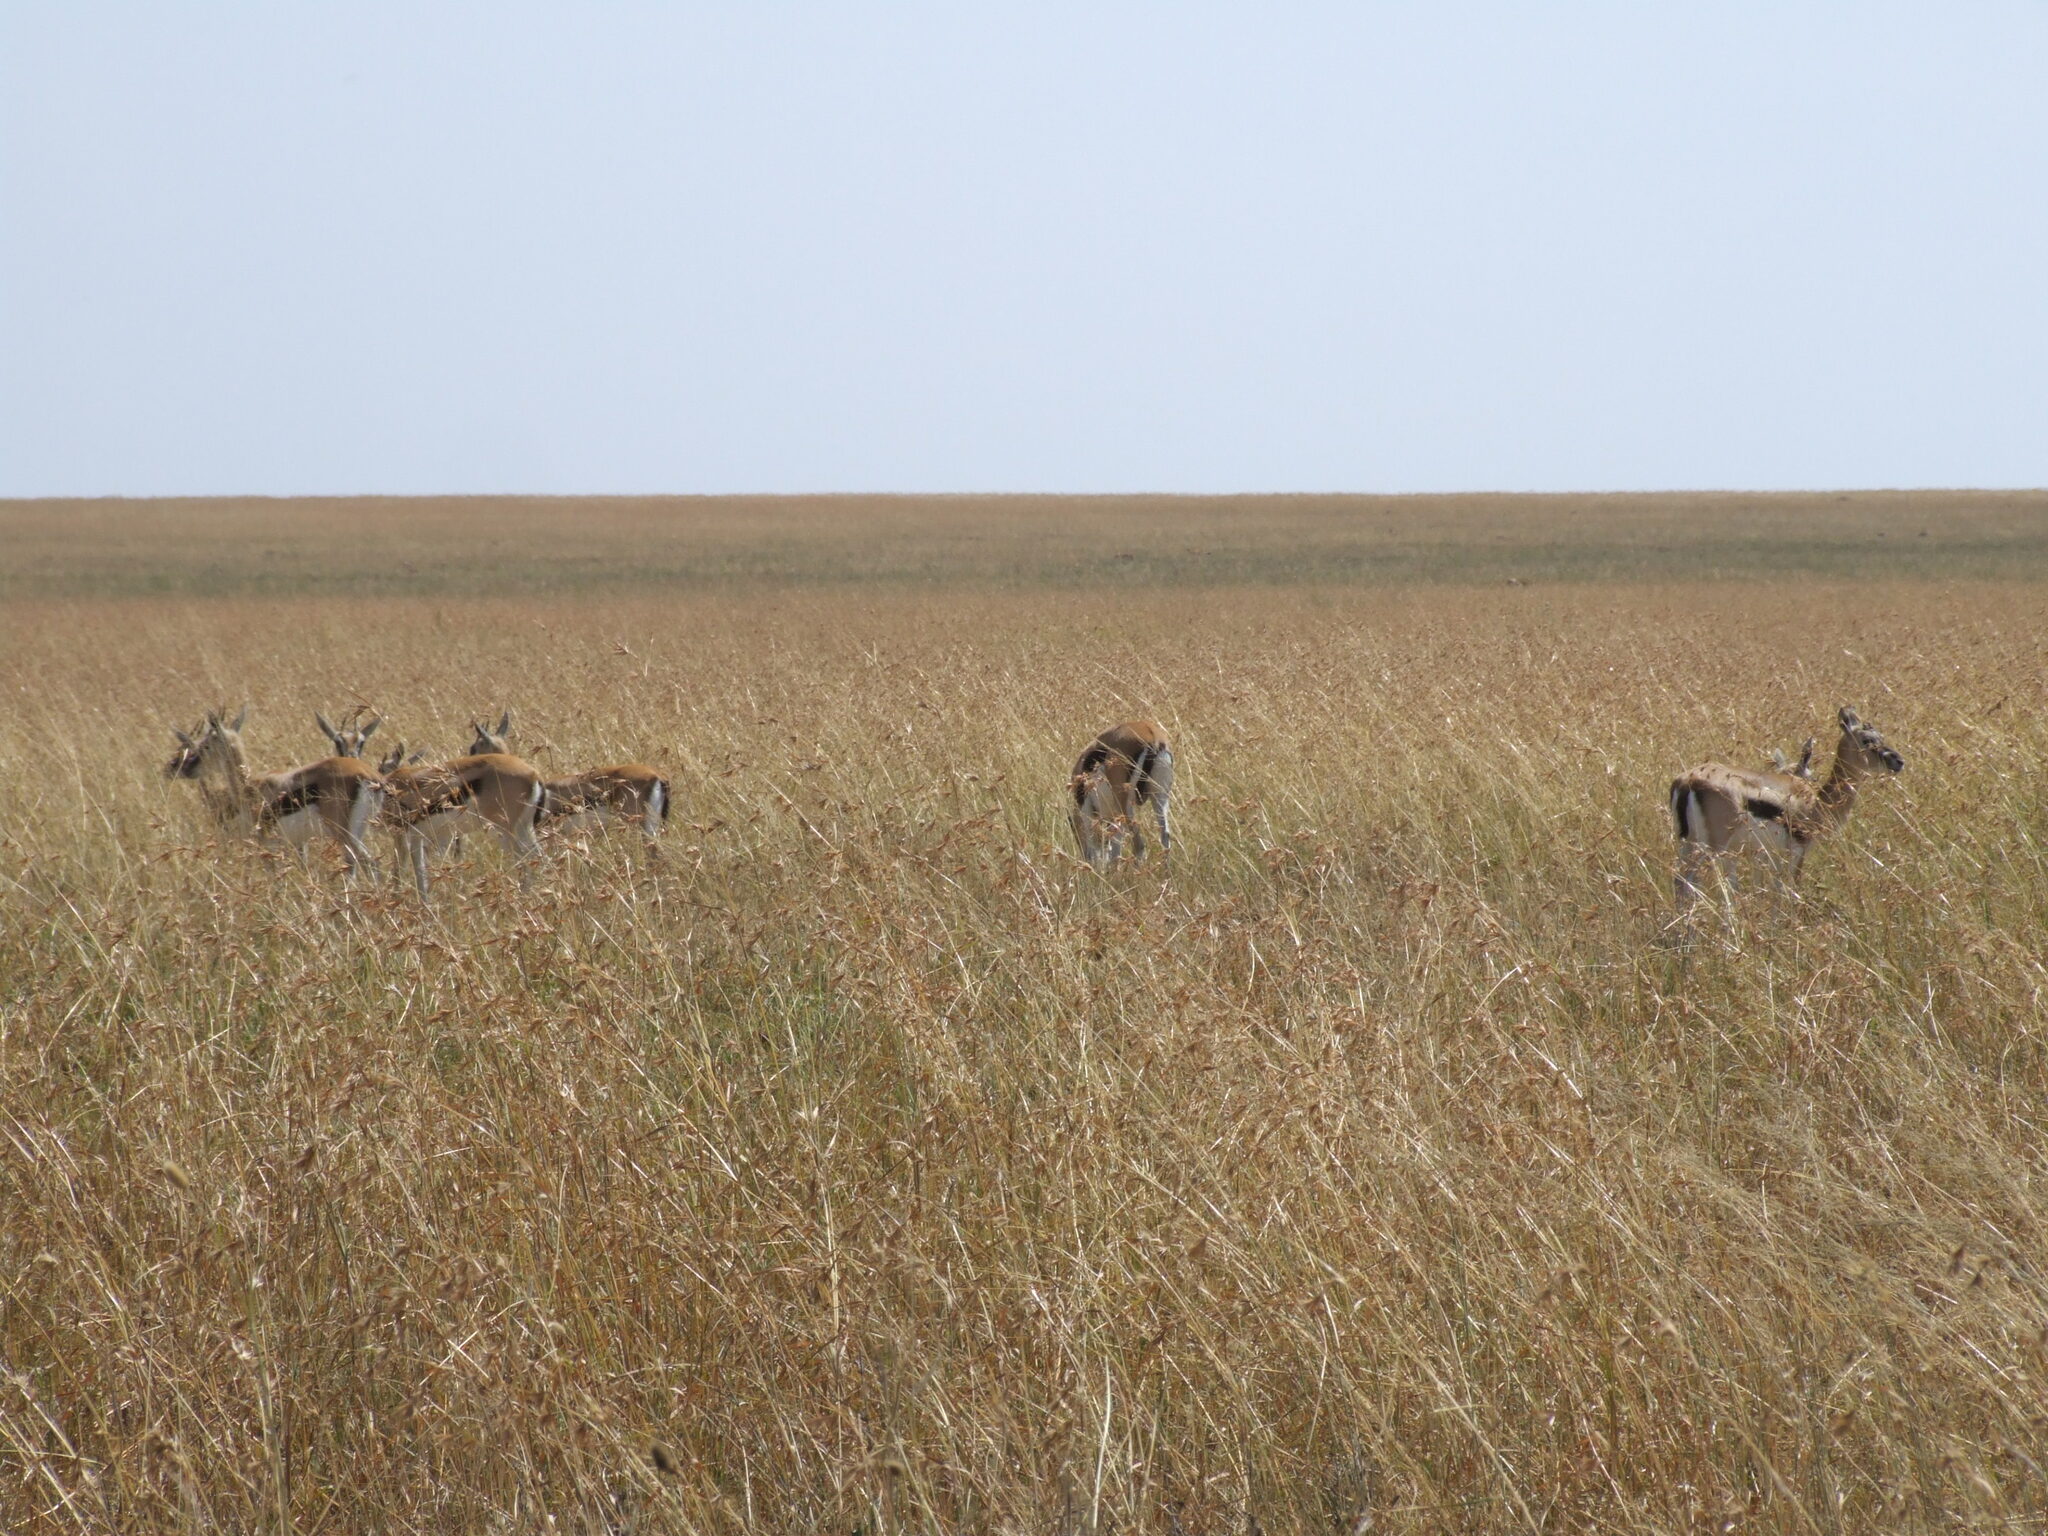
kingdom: Animalia
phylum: Chordata
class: Mammalia
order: Artiodactyla
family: Bovidae
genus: Eudorcas
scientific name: Eudorcas thomsonii
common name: Thomson's gazelle
